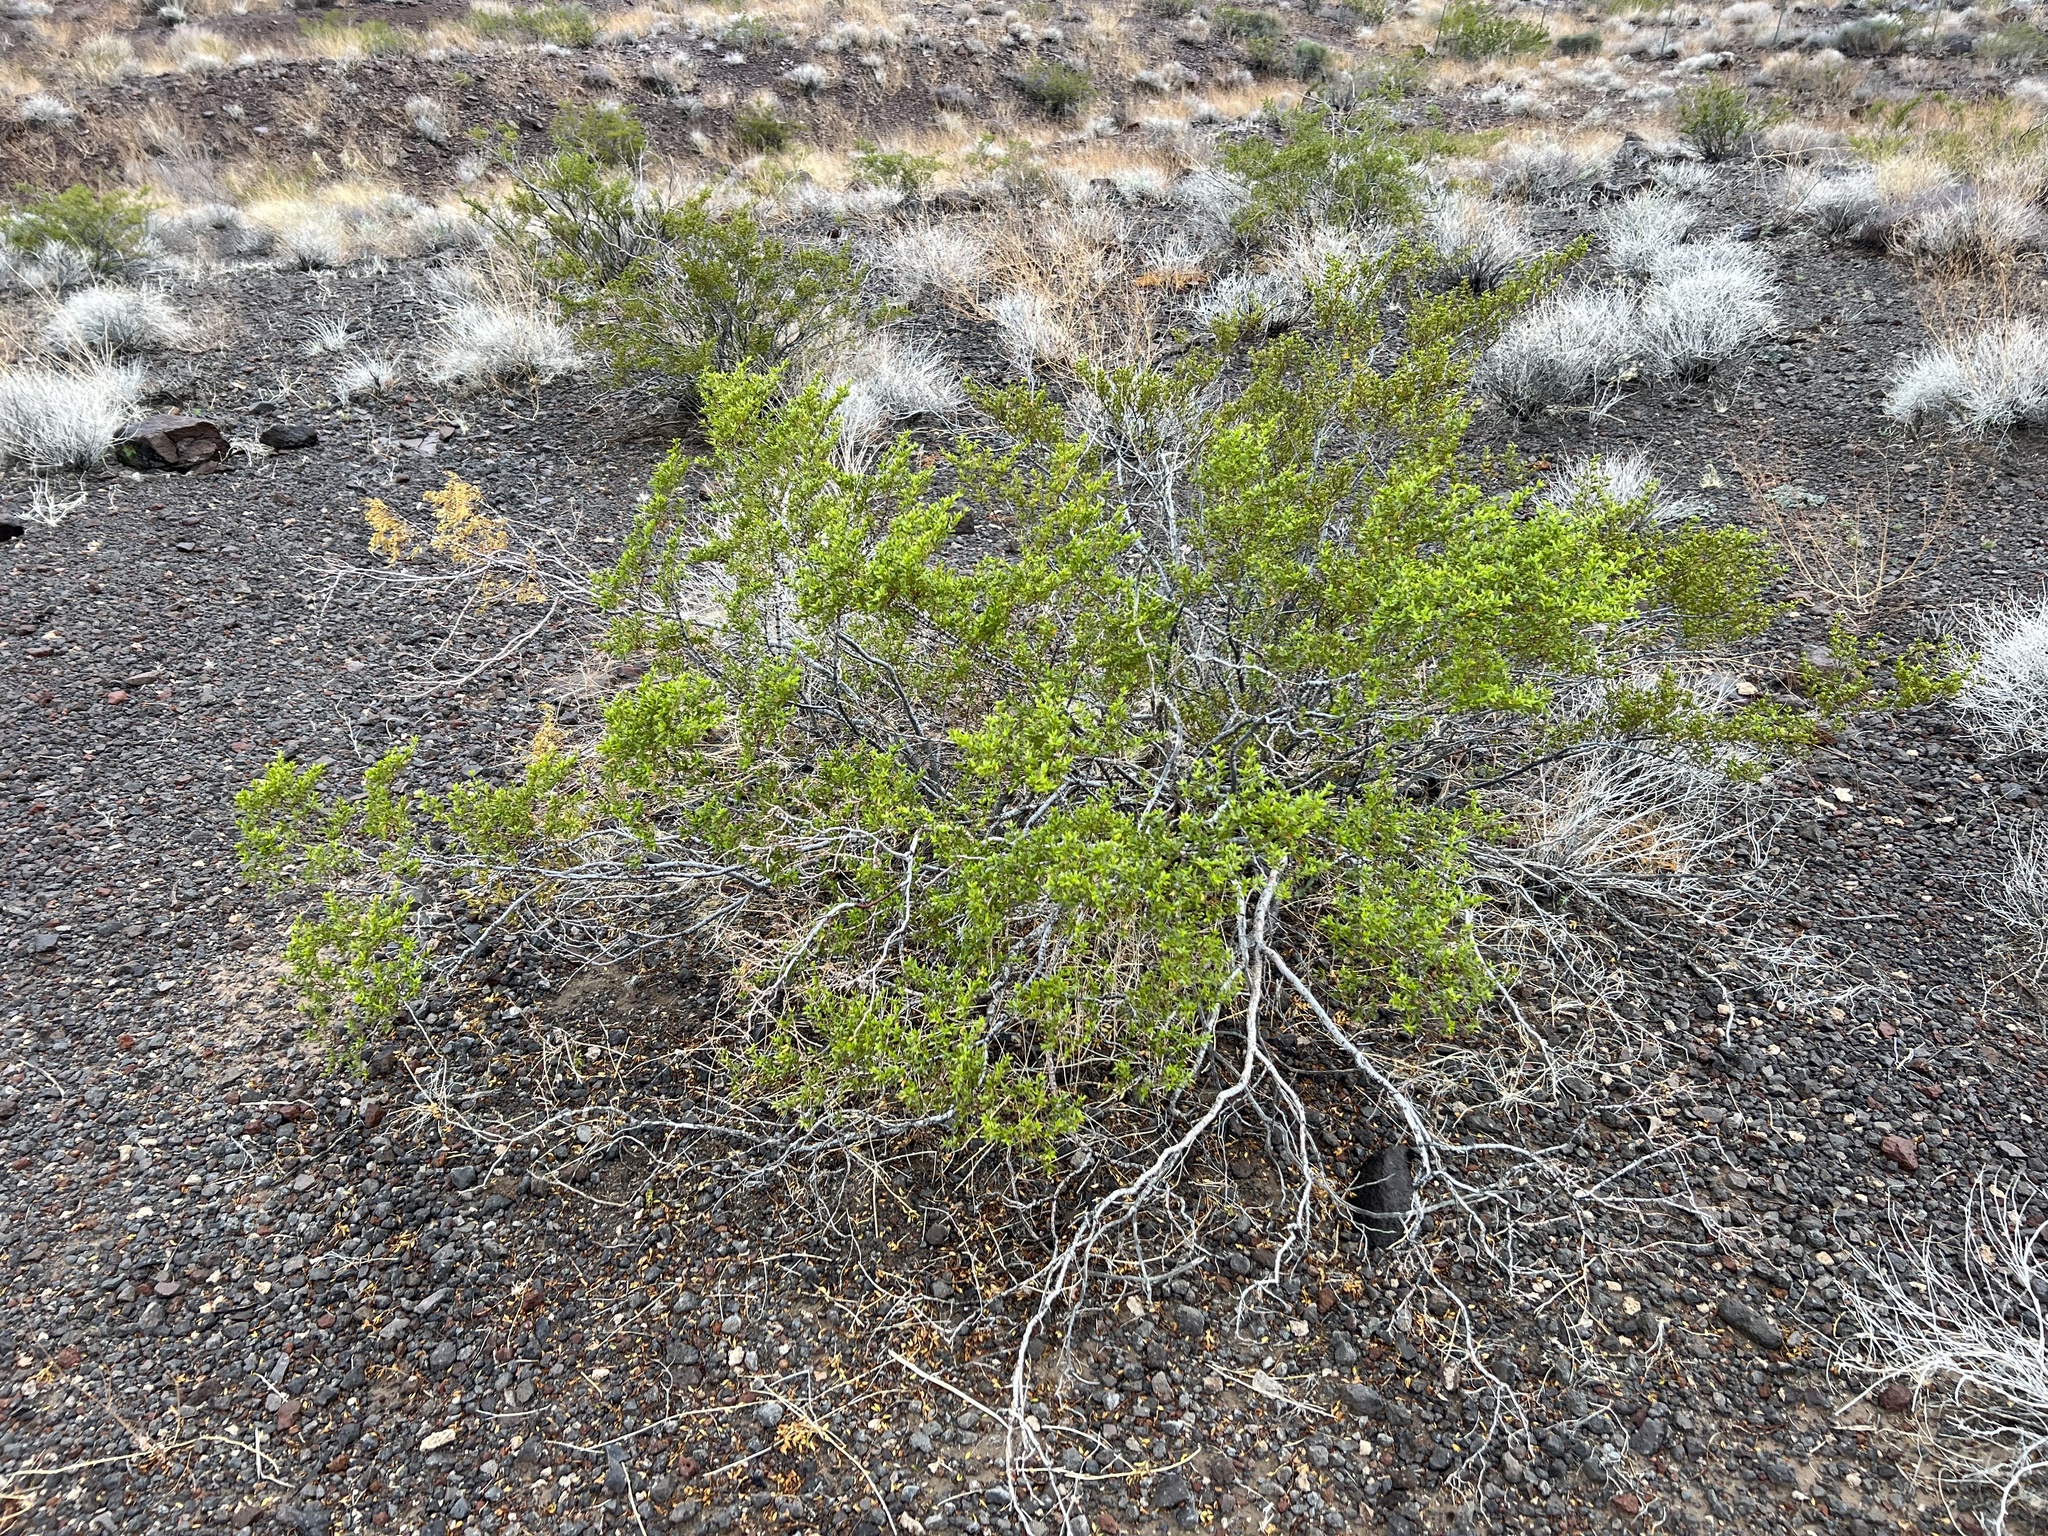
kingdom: Plantae
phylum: Tracheophyta
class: Magnoliopsida
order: Zygophyllales
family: Zygophyllaceae
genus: Larrea
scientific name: Larrea tridentata
